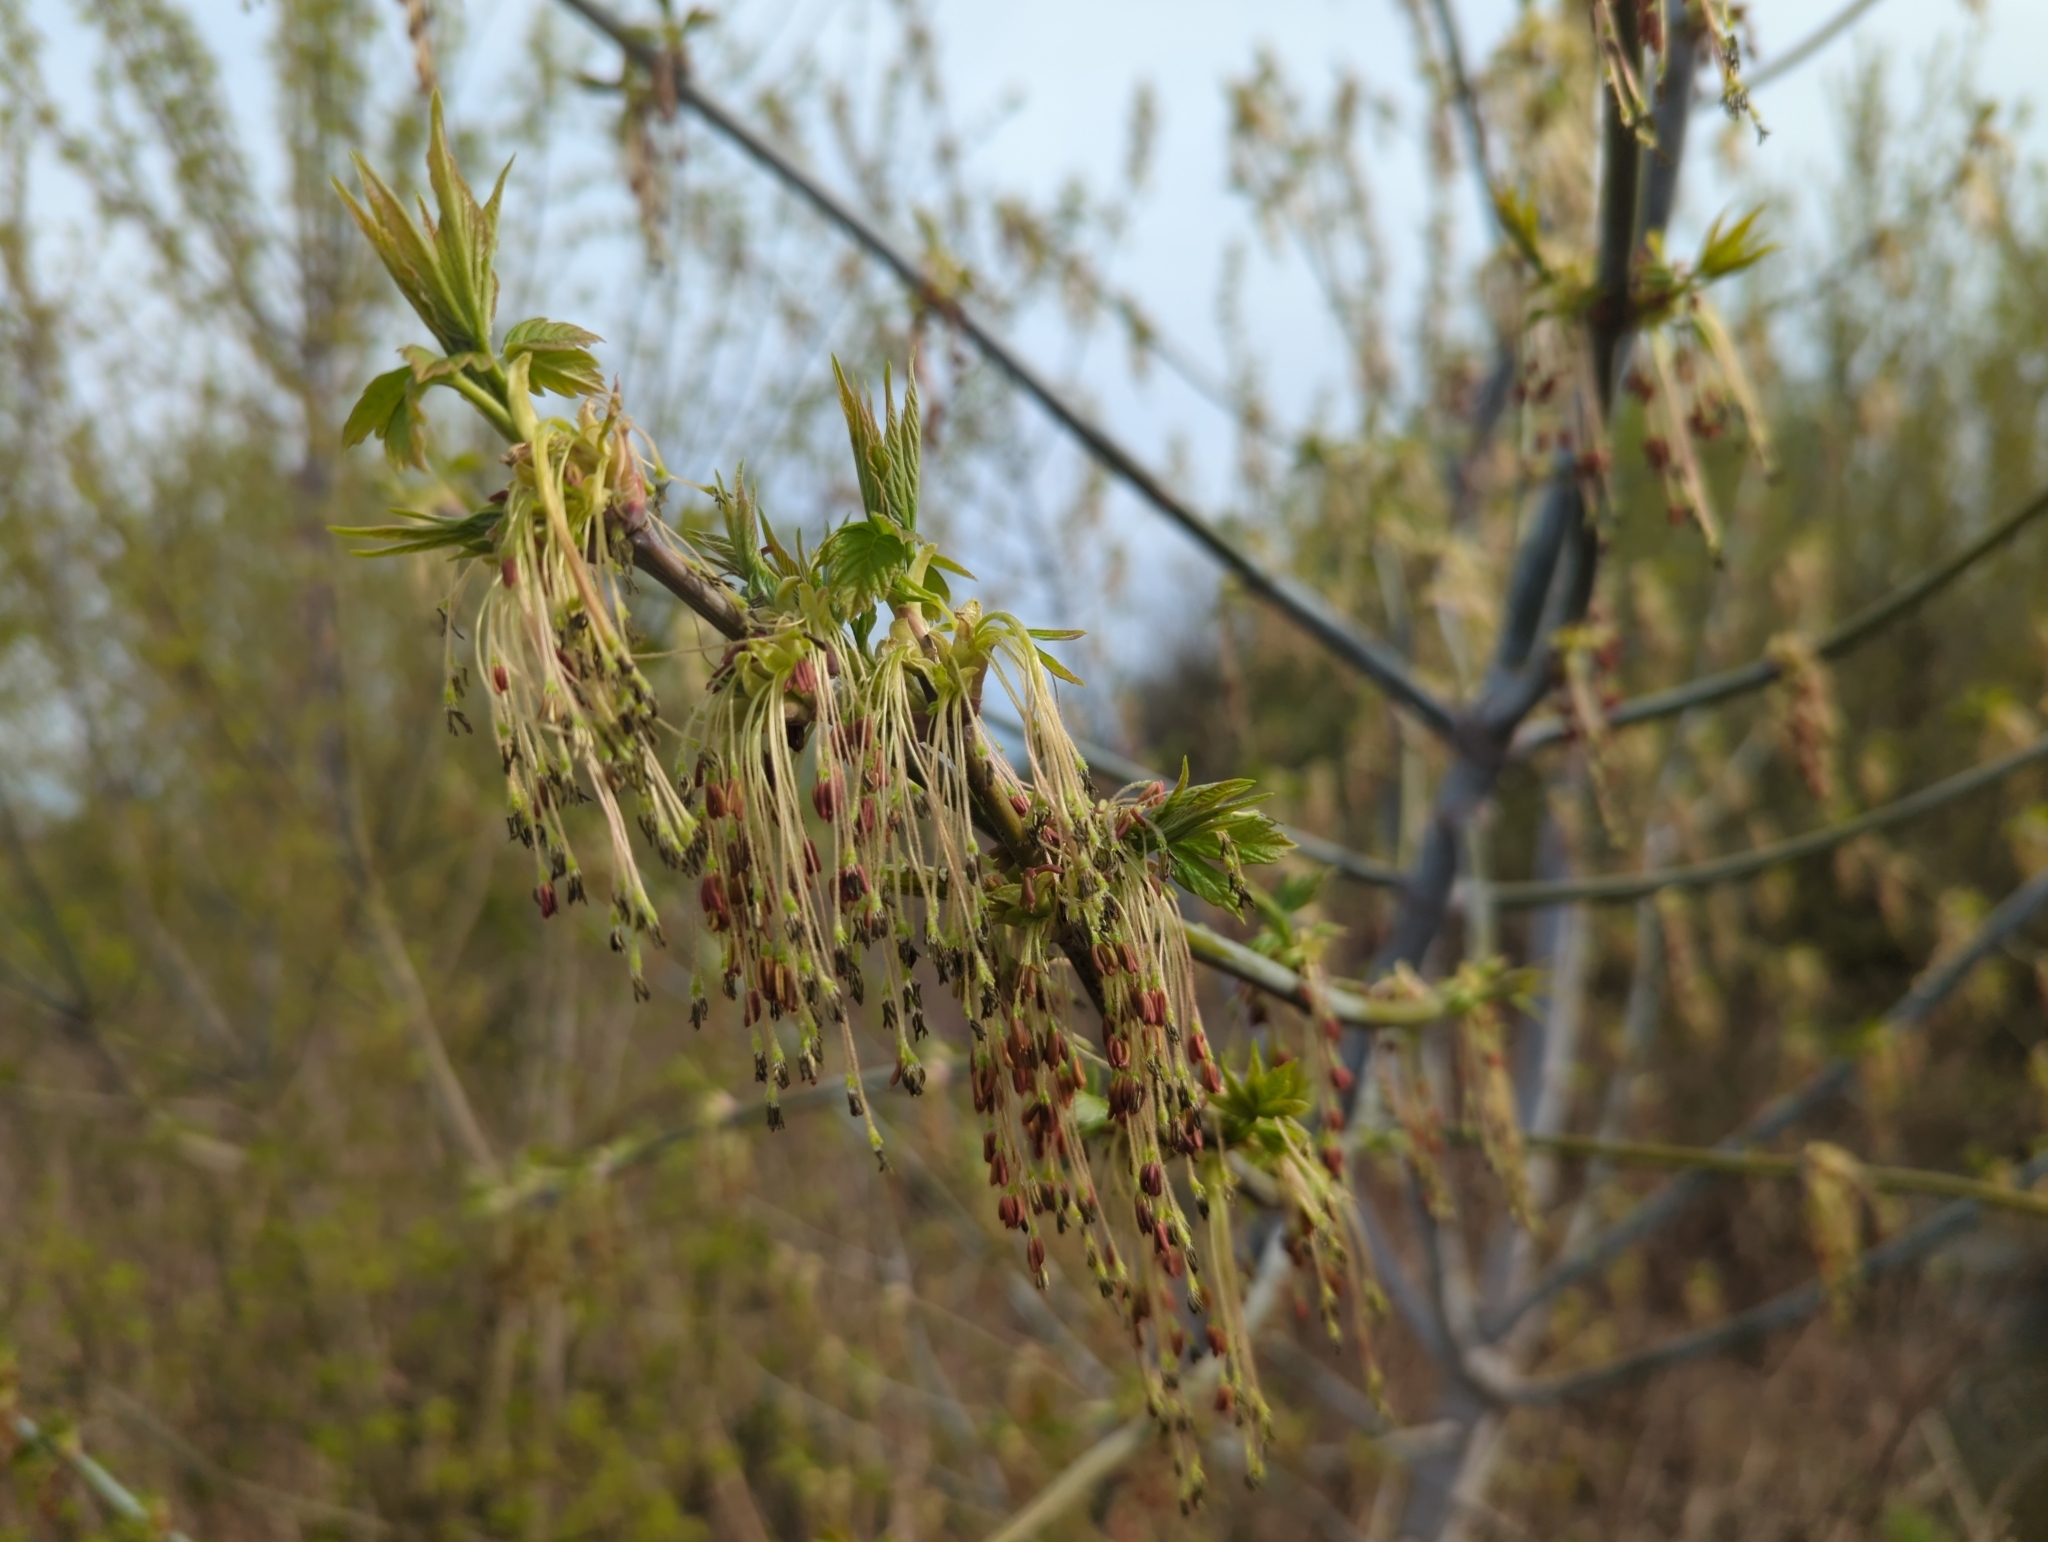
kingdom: Plantae
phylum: Tracheophyta
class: Magnoliopsida
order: Sapindales
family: Sapindaceae
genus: Acer
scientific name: Acer negundo
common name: Ashleaf maple
